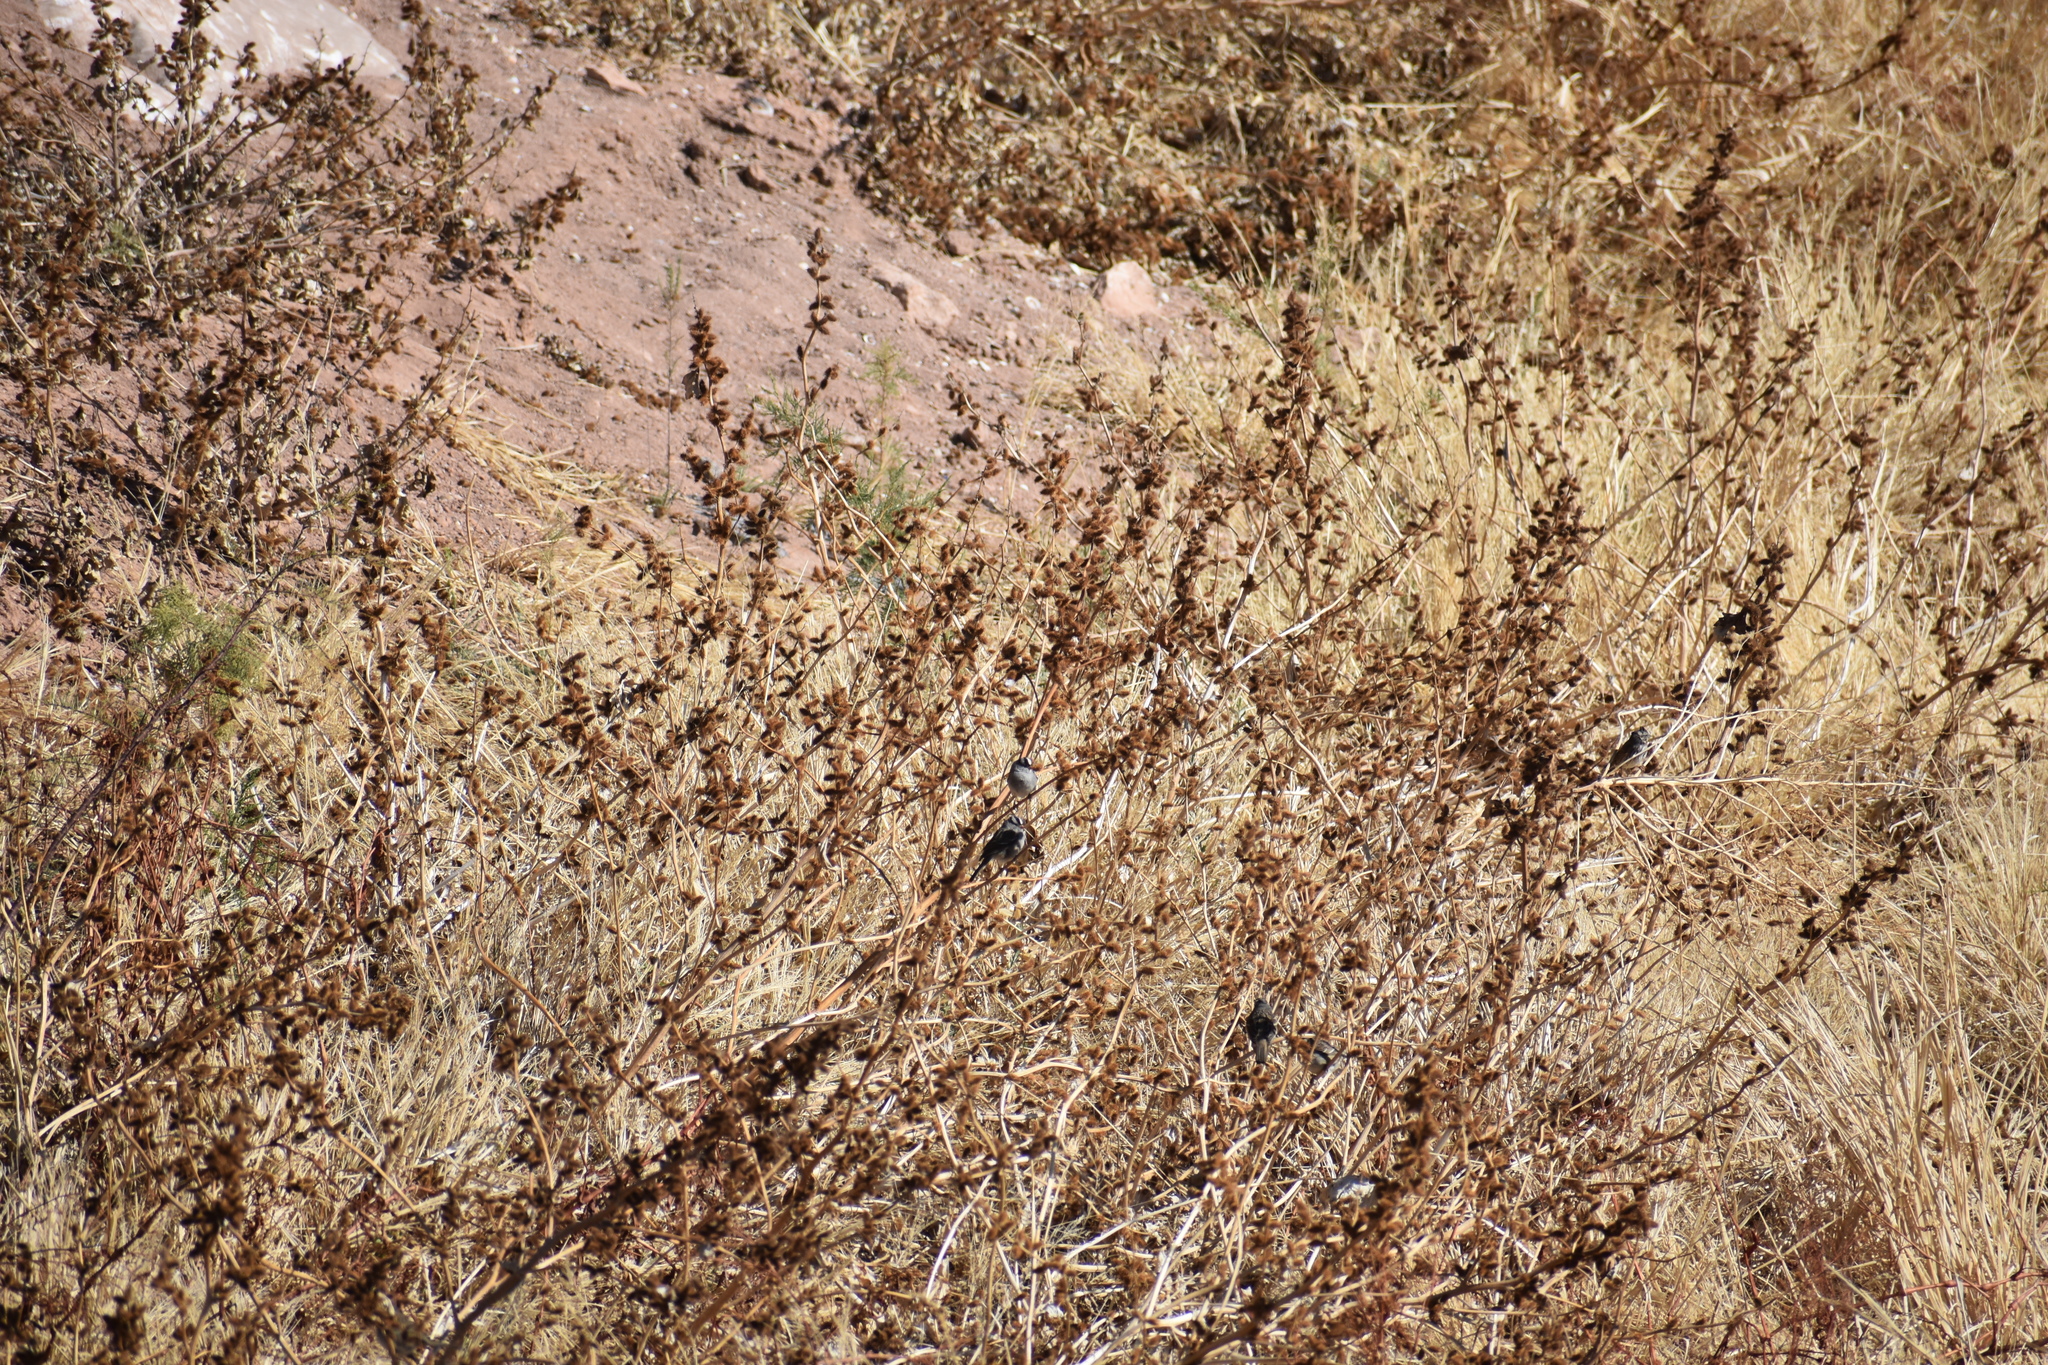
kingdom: Animalia
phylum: Chordata
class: Aves
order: Passeriformes
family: Passerellidae
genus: Zonotrichia
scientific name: Zonotrichia leucophrys
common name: White-crowned sparrow
